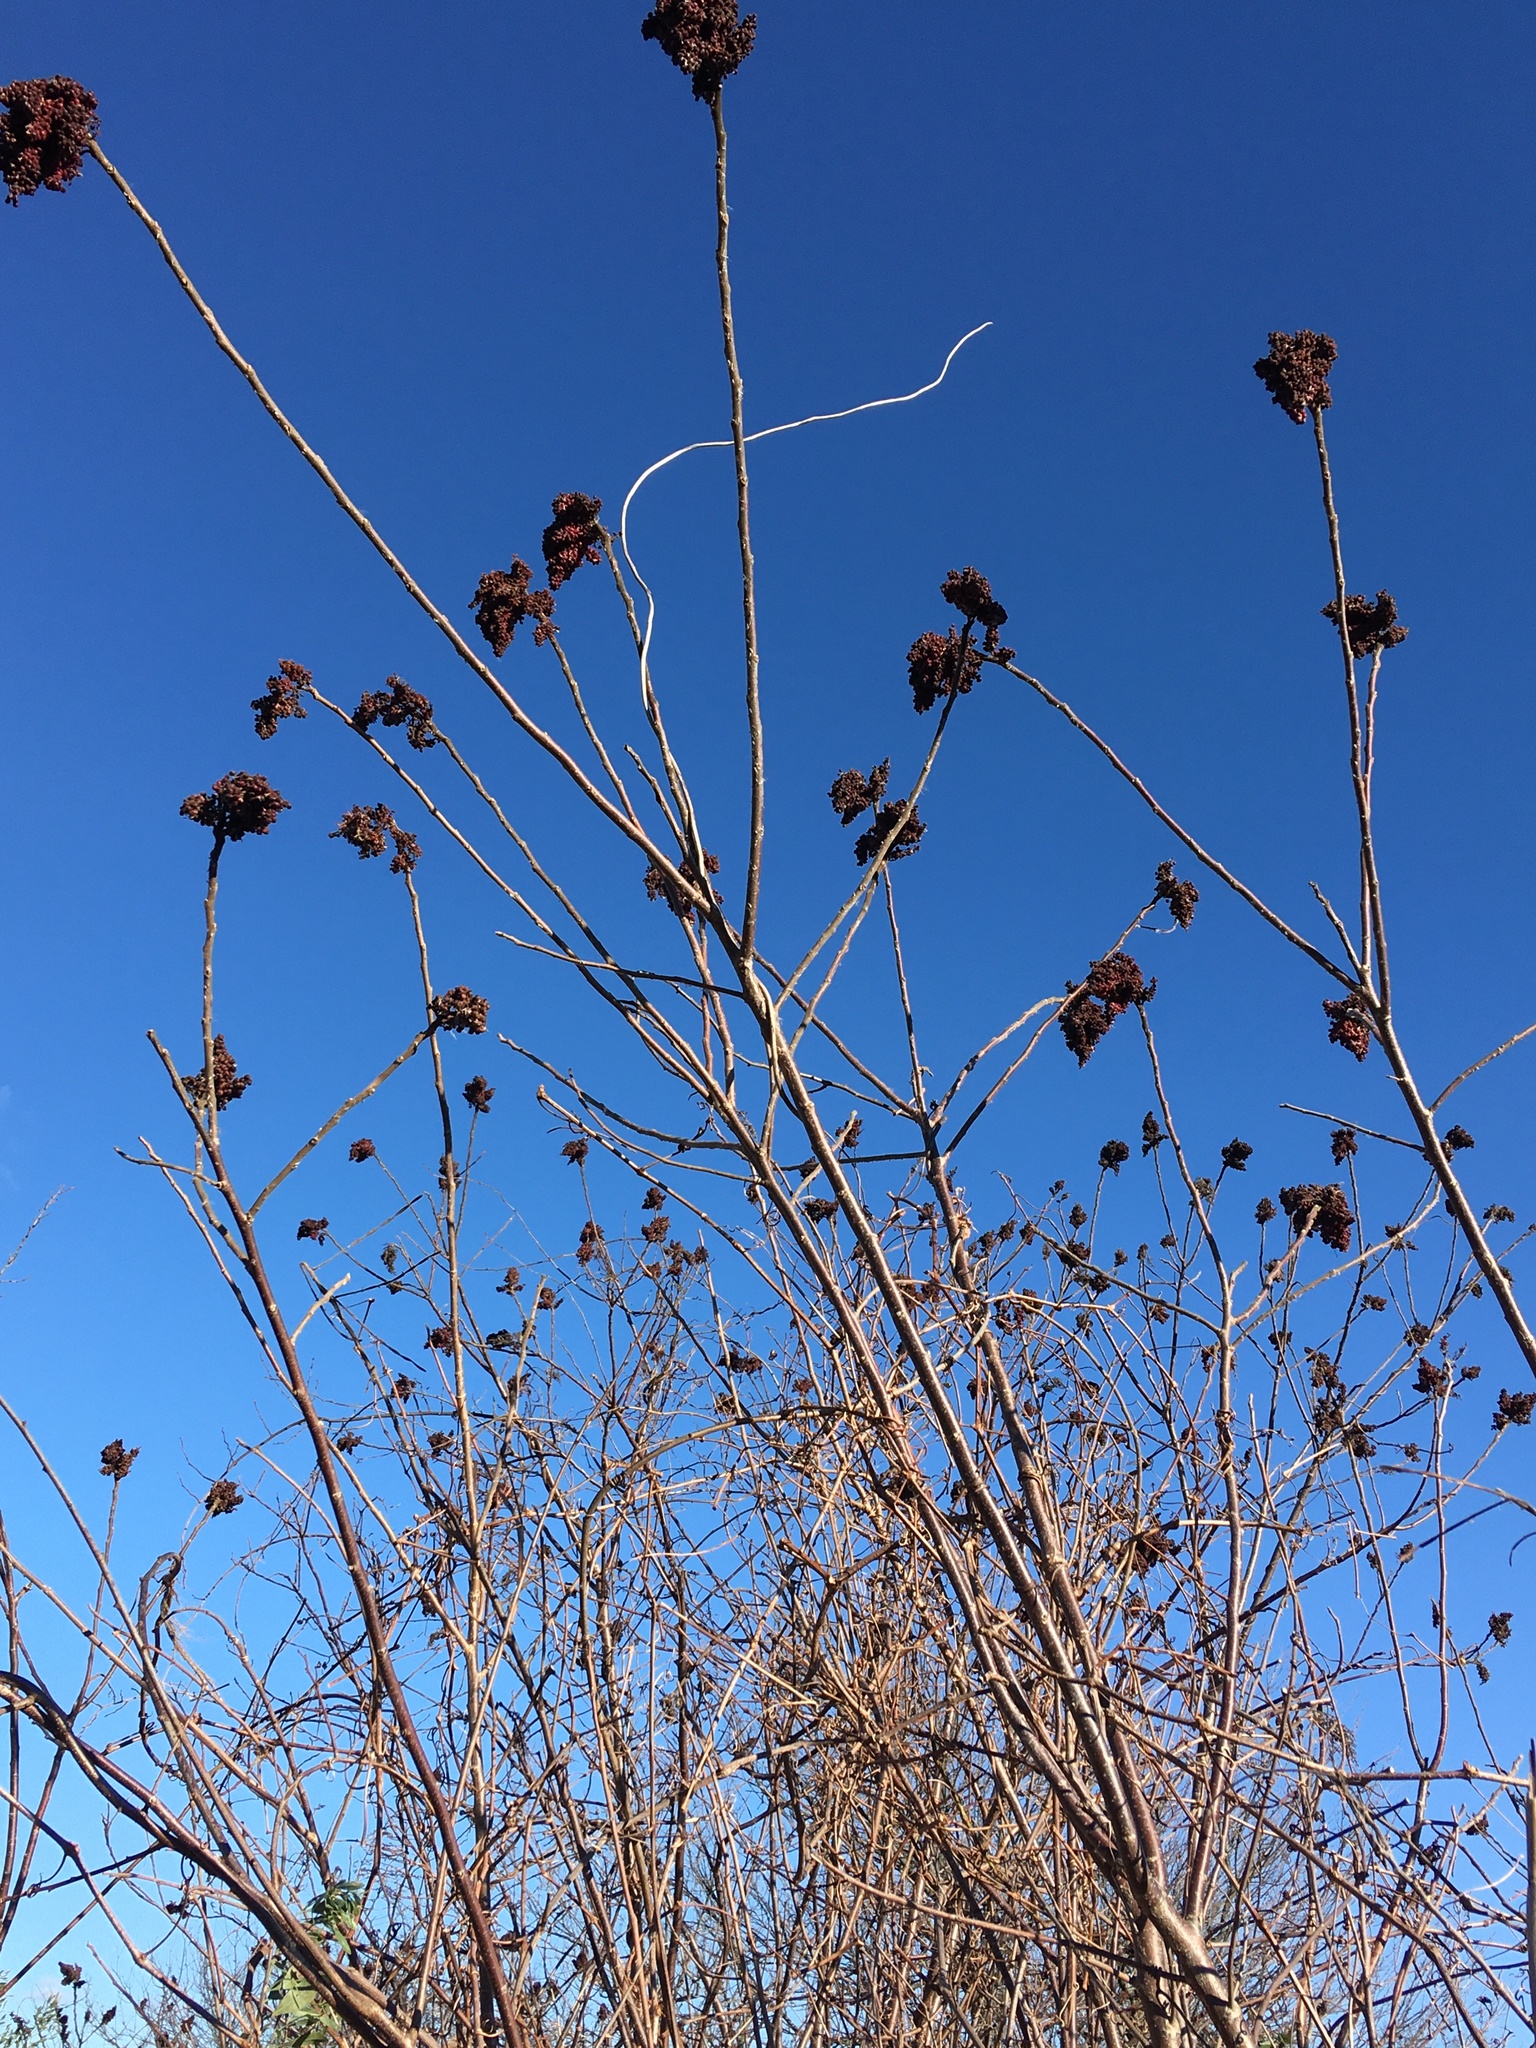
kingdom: Plantae
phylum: Tracheophyta
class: Magnoliopsida
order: Sapindales
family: Anacardiaceae
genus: Rhus
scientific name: Rhus copallina
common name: Shining sumac
